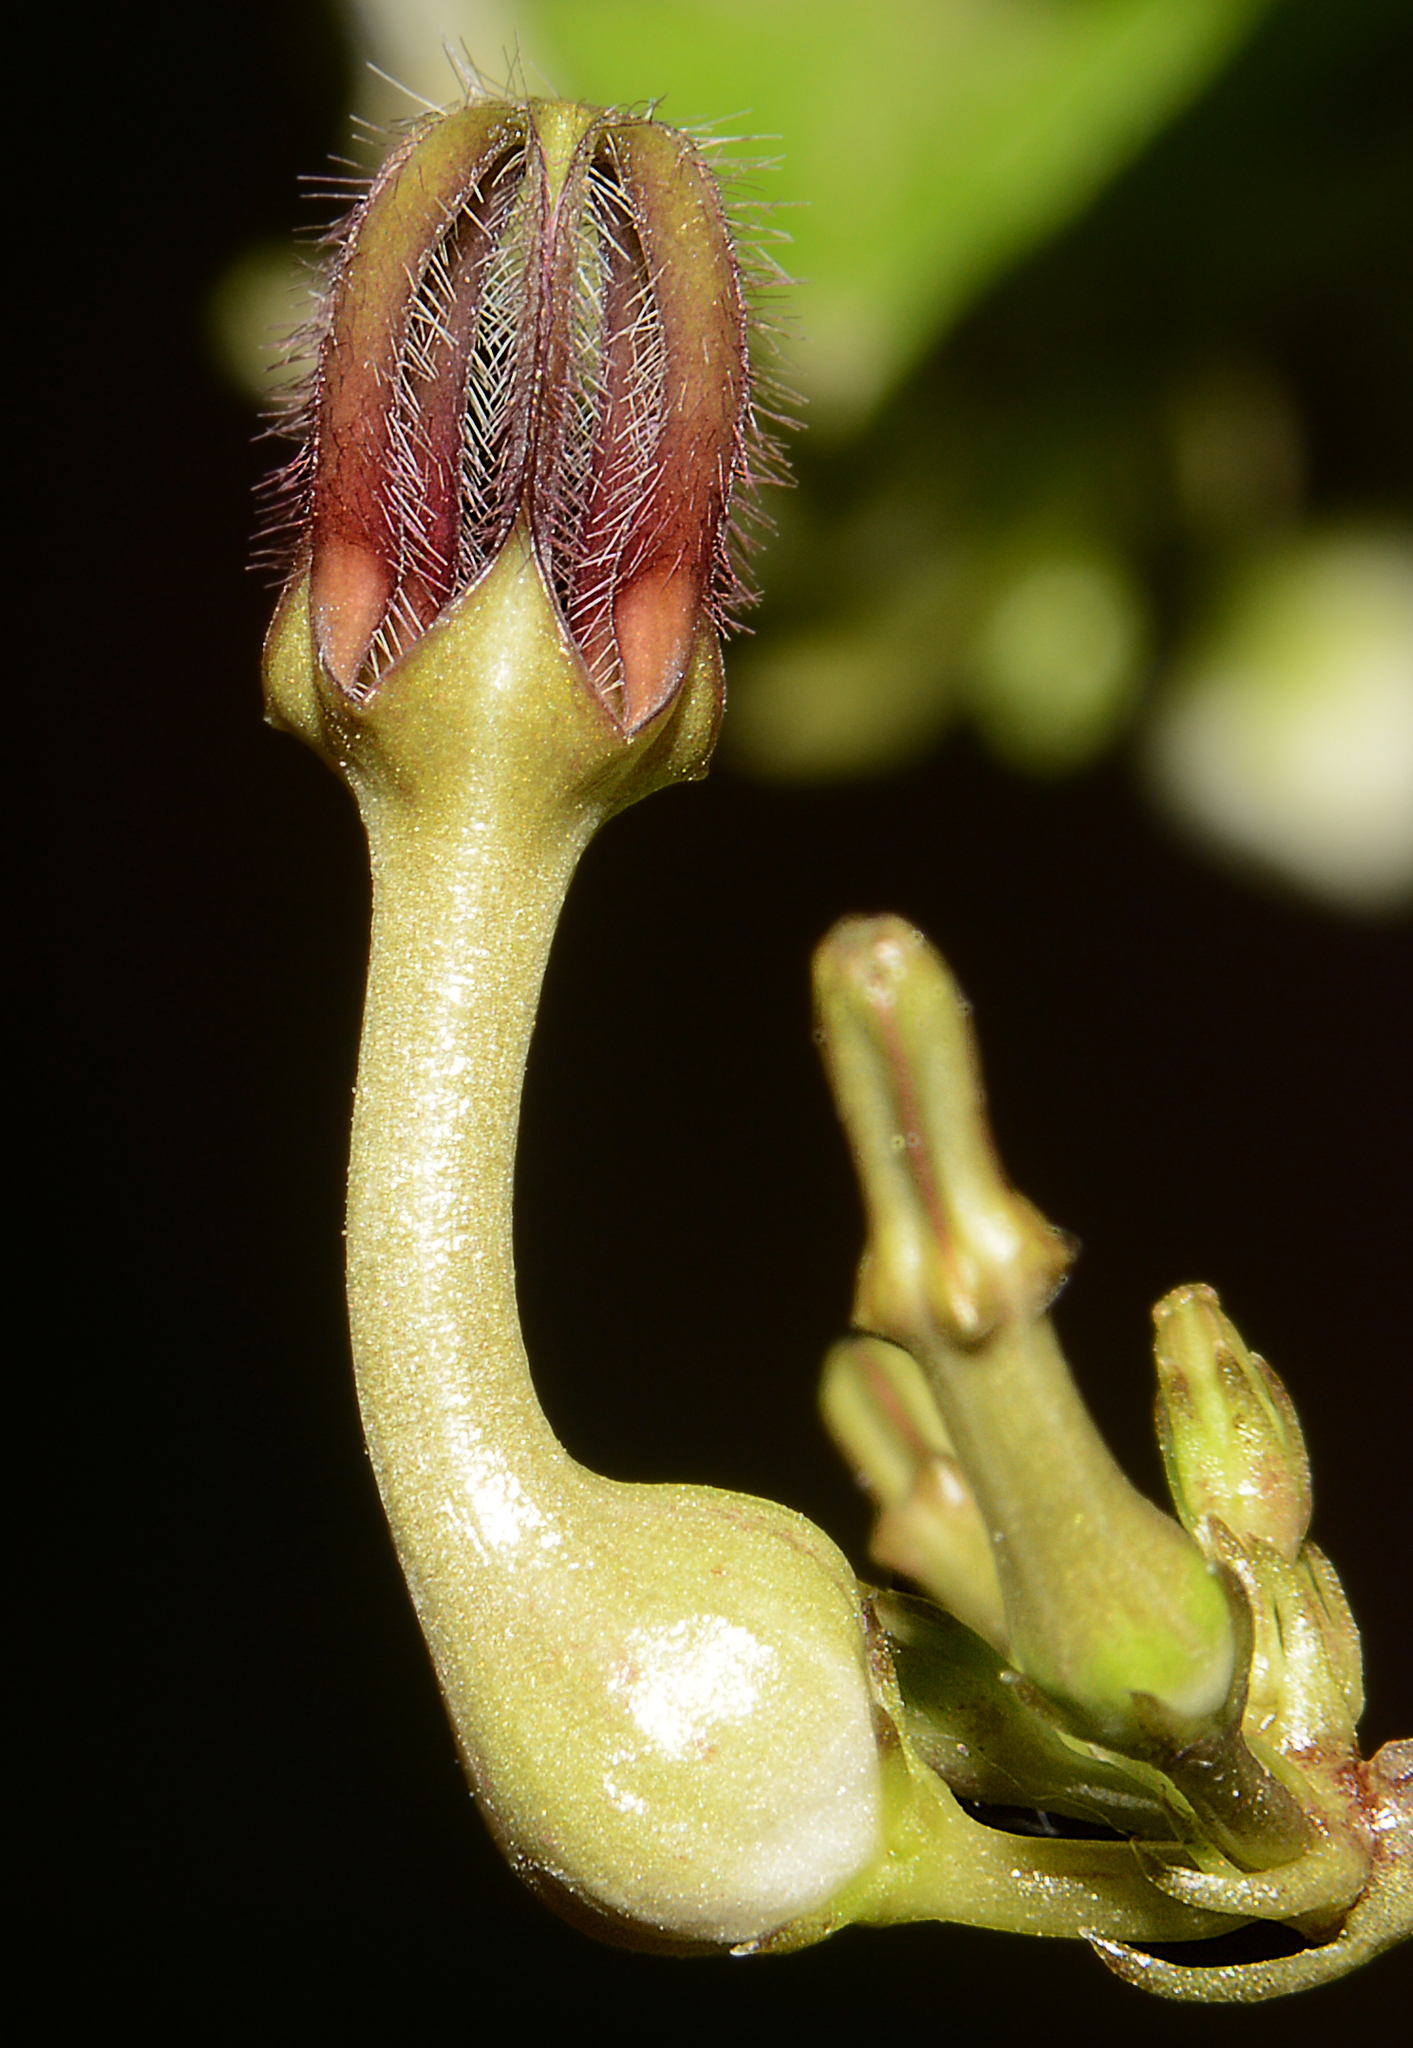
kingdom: Plantae
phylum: Tracheophyta
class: Magnoliopsida
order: Gentianales
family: Apocynaceae
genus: Ceropegia
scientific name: Ceropegia bulbosa
